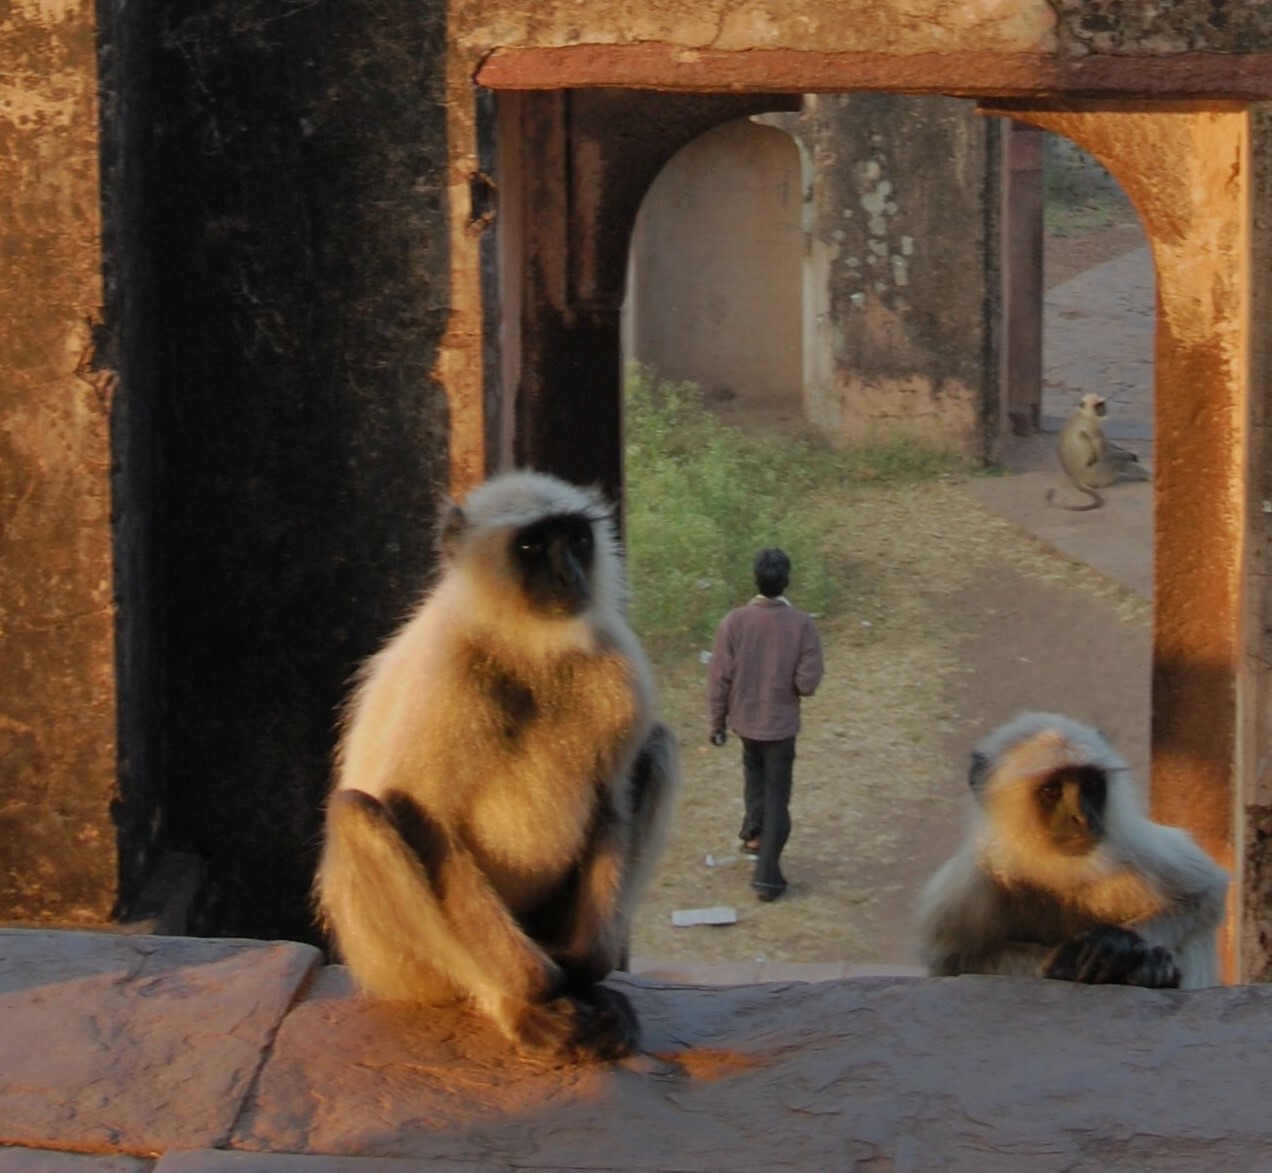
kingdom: Animalia
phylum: Chordata
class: Mammalia
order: Primates
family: Cercopithecidae
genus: Semnopithecus
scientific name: Semnopithecus entellus
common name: Northern plains gray langur
